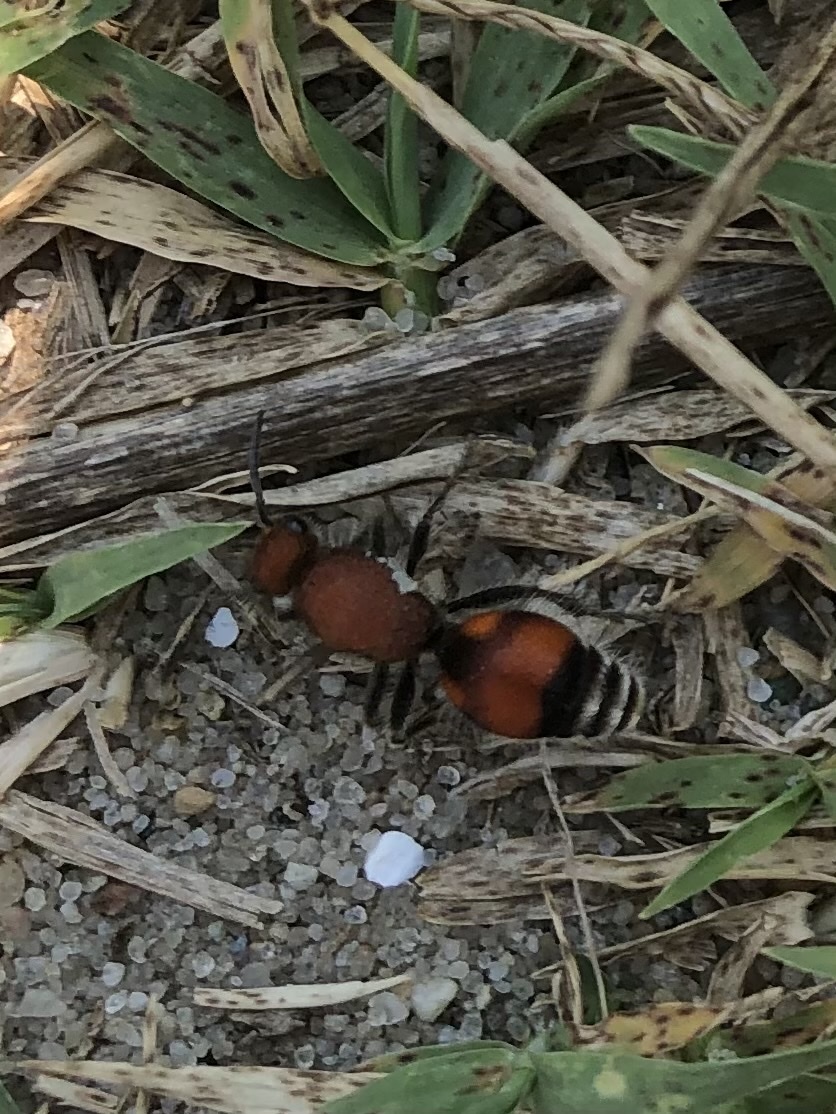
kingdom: Animalia
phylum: Arthropoda
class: Insecta
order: Hymenoptera
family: Mutillidae
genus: Dasymutilla
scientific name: Dasymutilla
